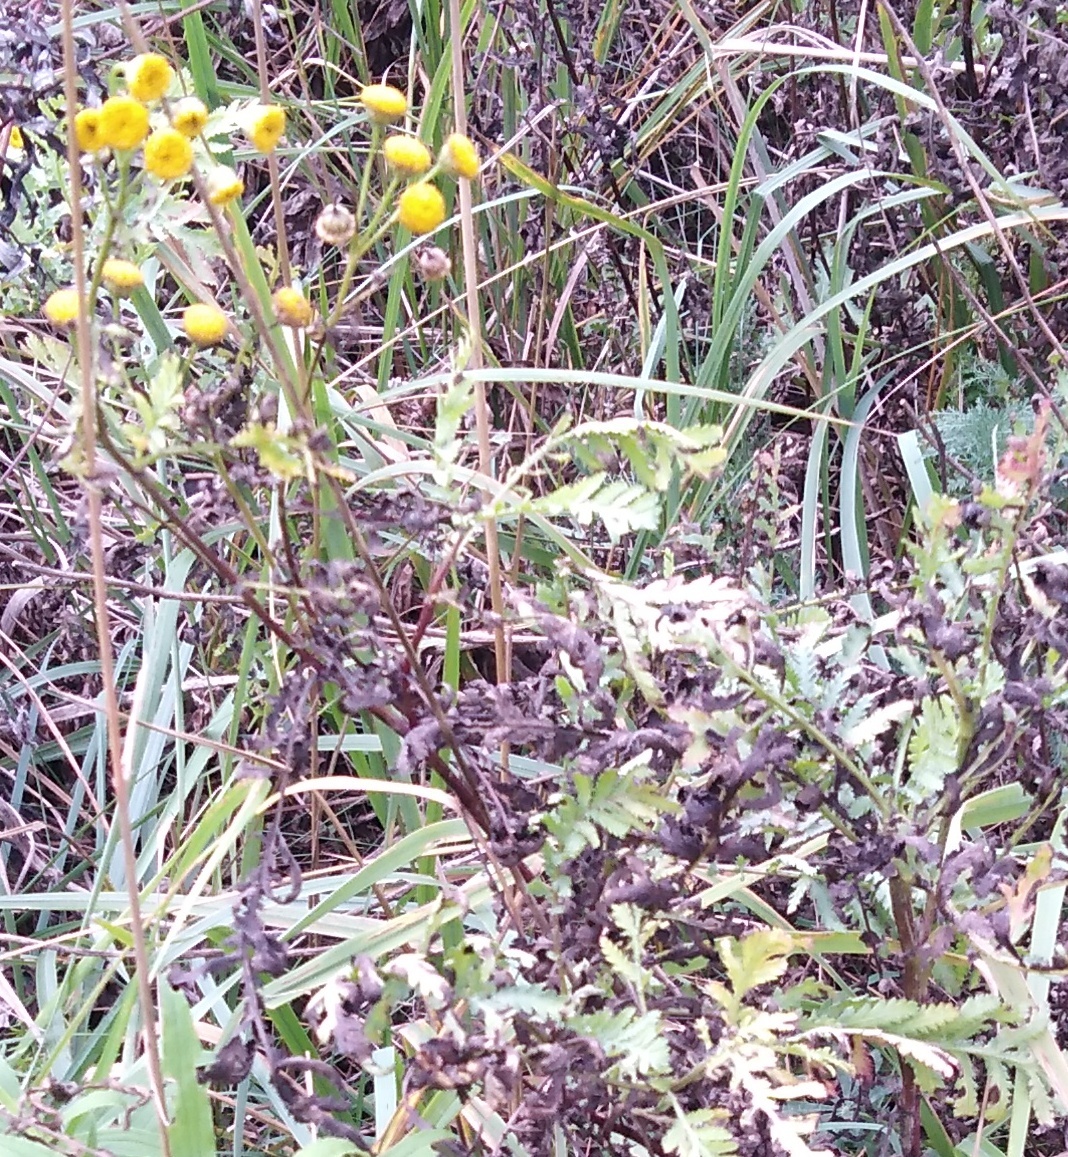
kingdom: Plantae
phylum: Tracheophyta
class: Magnoliopsida
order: Asterales
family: Asteraceae
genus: Tanacetum
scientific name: Tanacetum vulgare
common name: Common tansy
